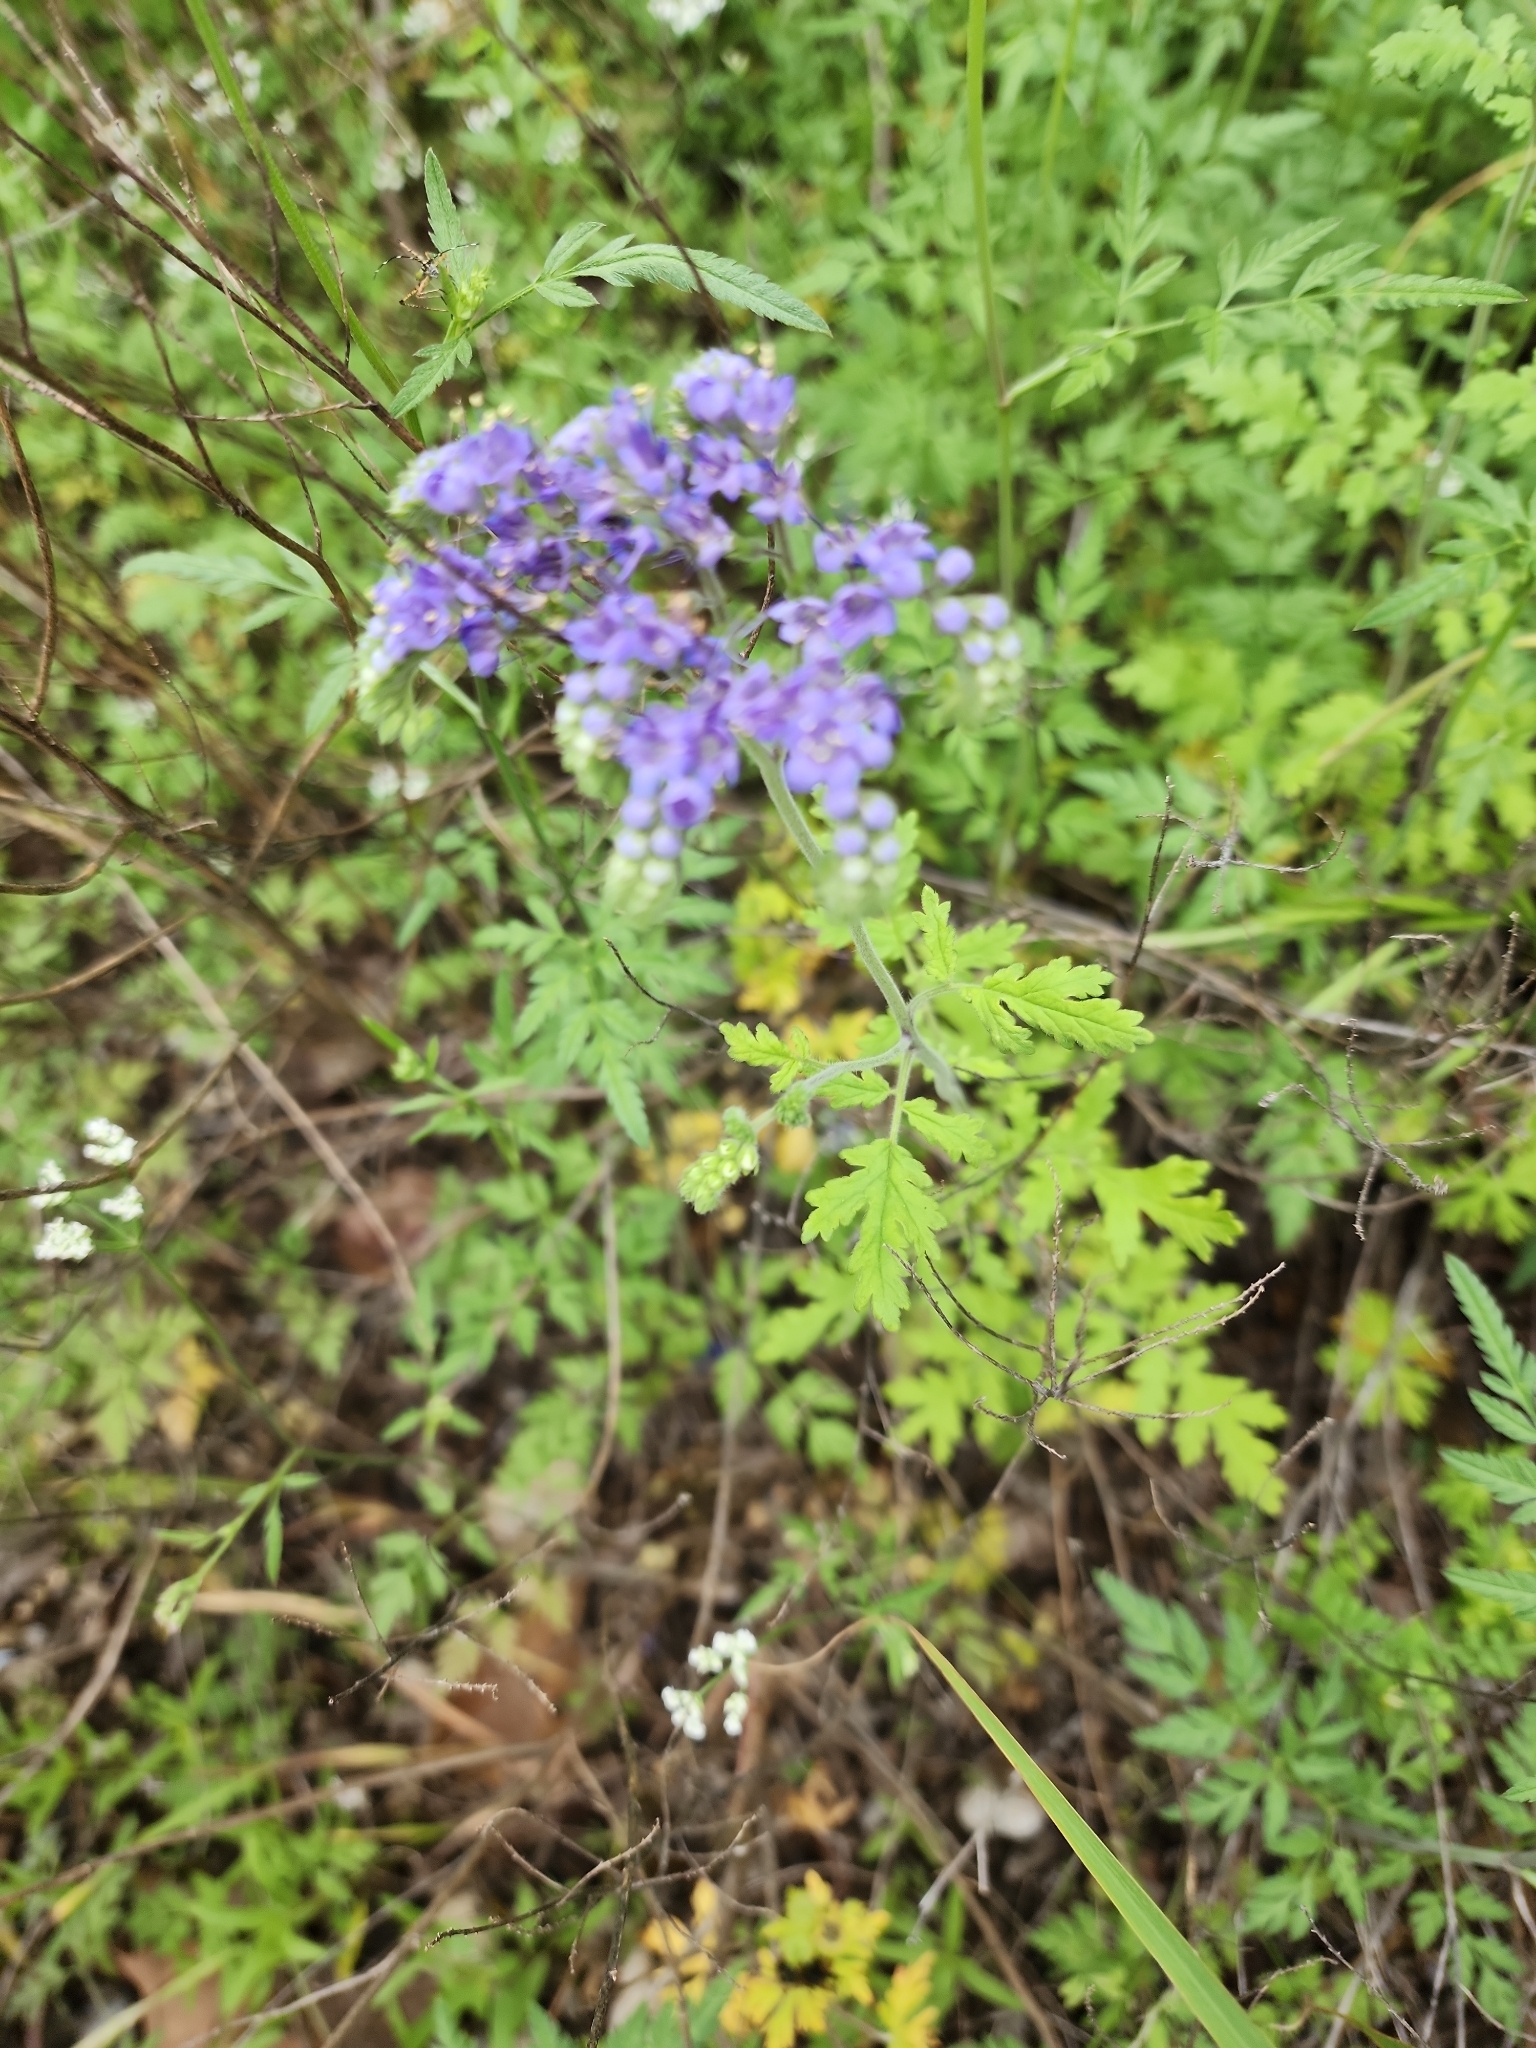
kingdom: Plantae
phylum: Tracheophyta
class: Magnoliopsida
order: Boraginales
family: Hydrophyllaceae
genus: Phacelia
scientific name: Phacelia congesta
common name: Blue curls
